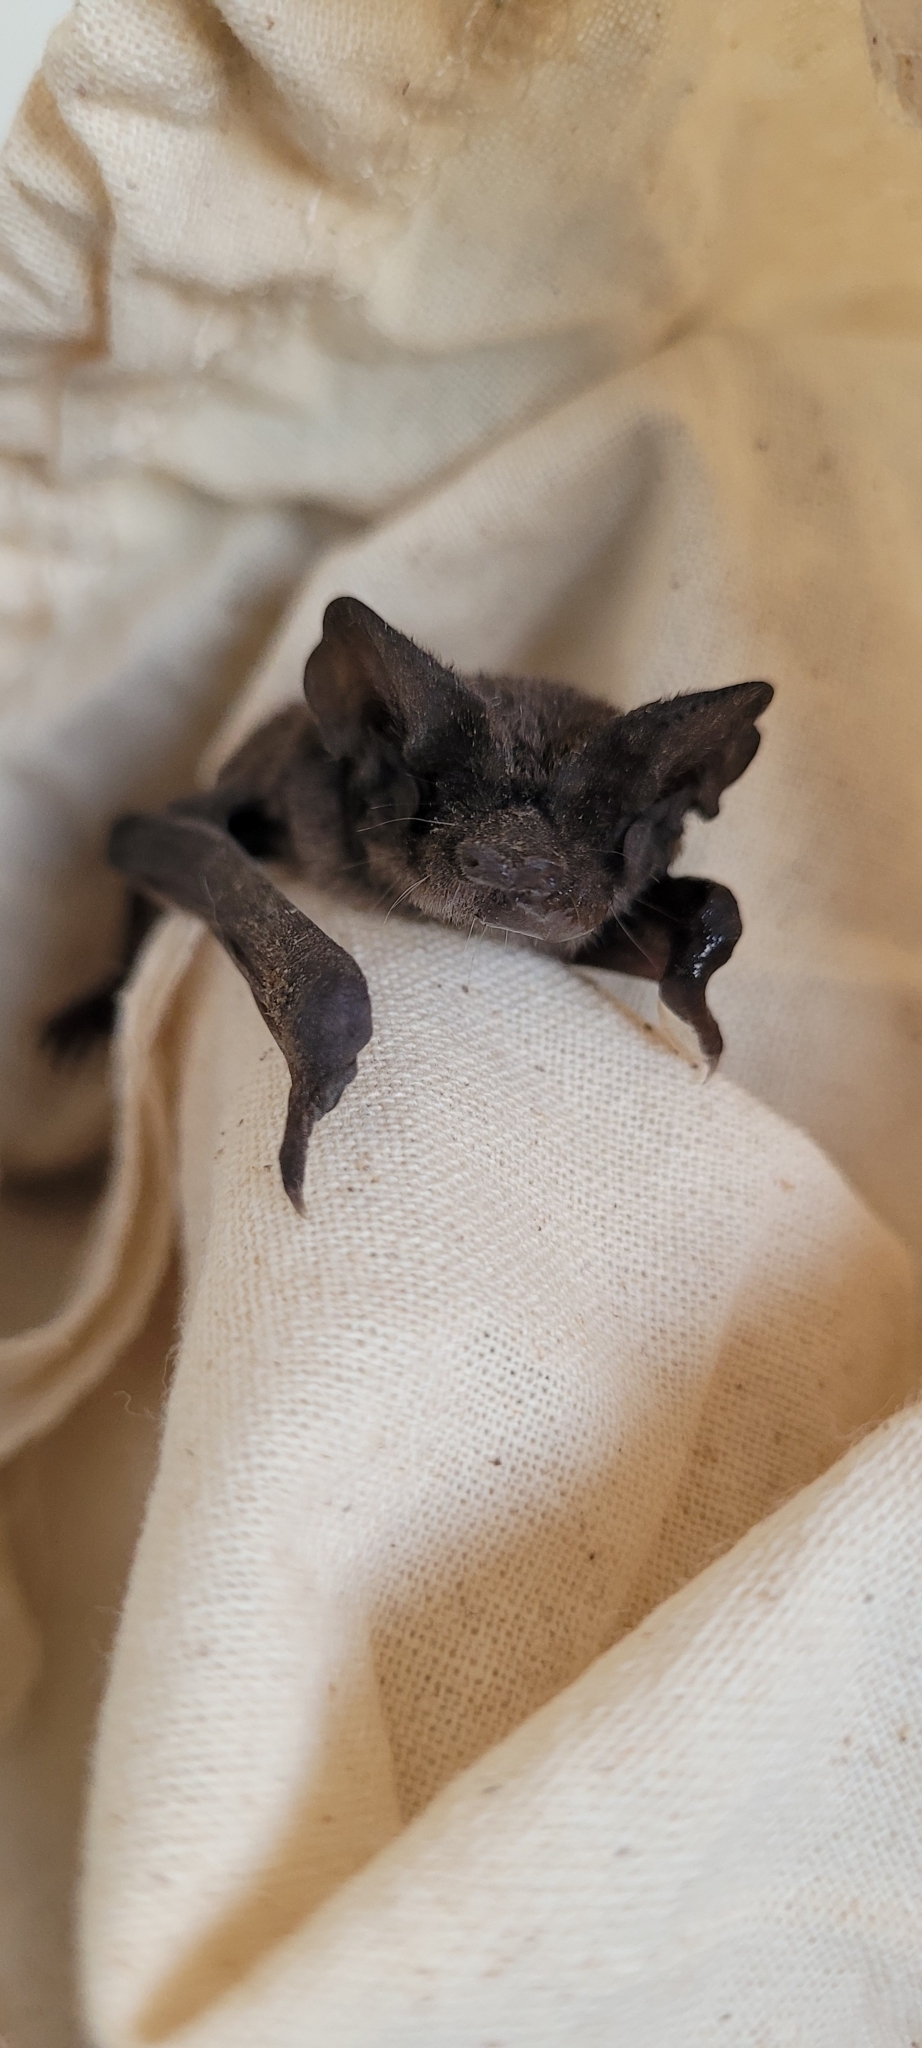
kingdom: Animalia
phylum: Chordata
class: Mammalia
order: Chiroptera
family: Molossidae
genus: Tadarida
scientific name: Tadarida brasiliensis
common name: Mexican free-tailed bat
